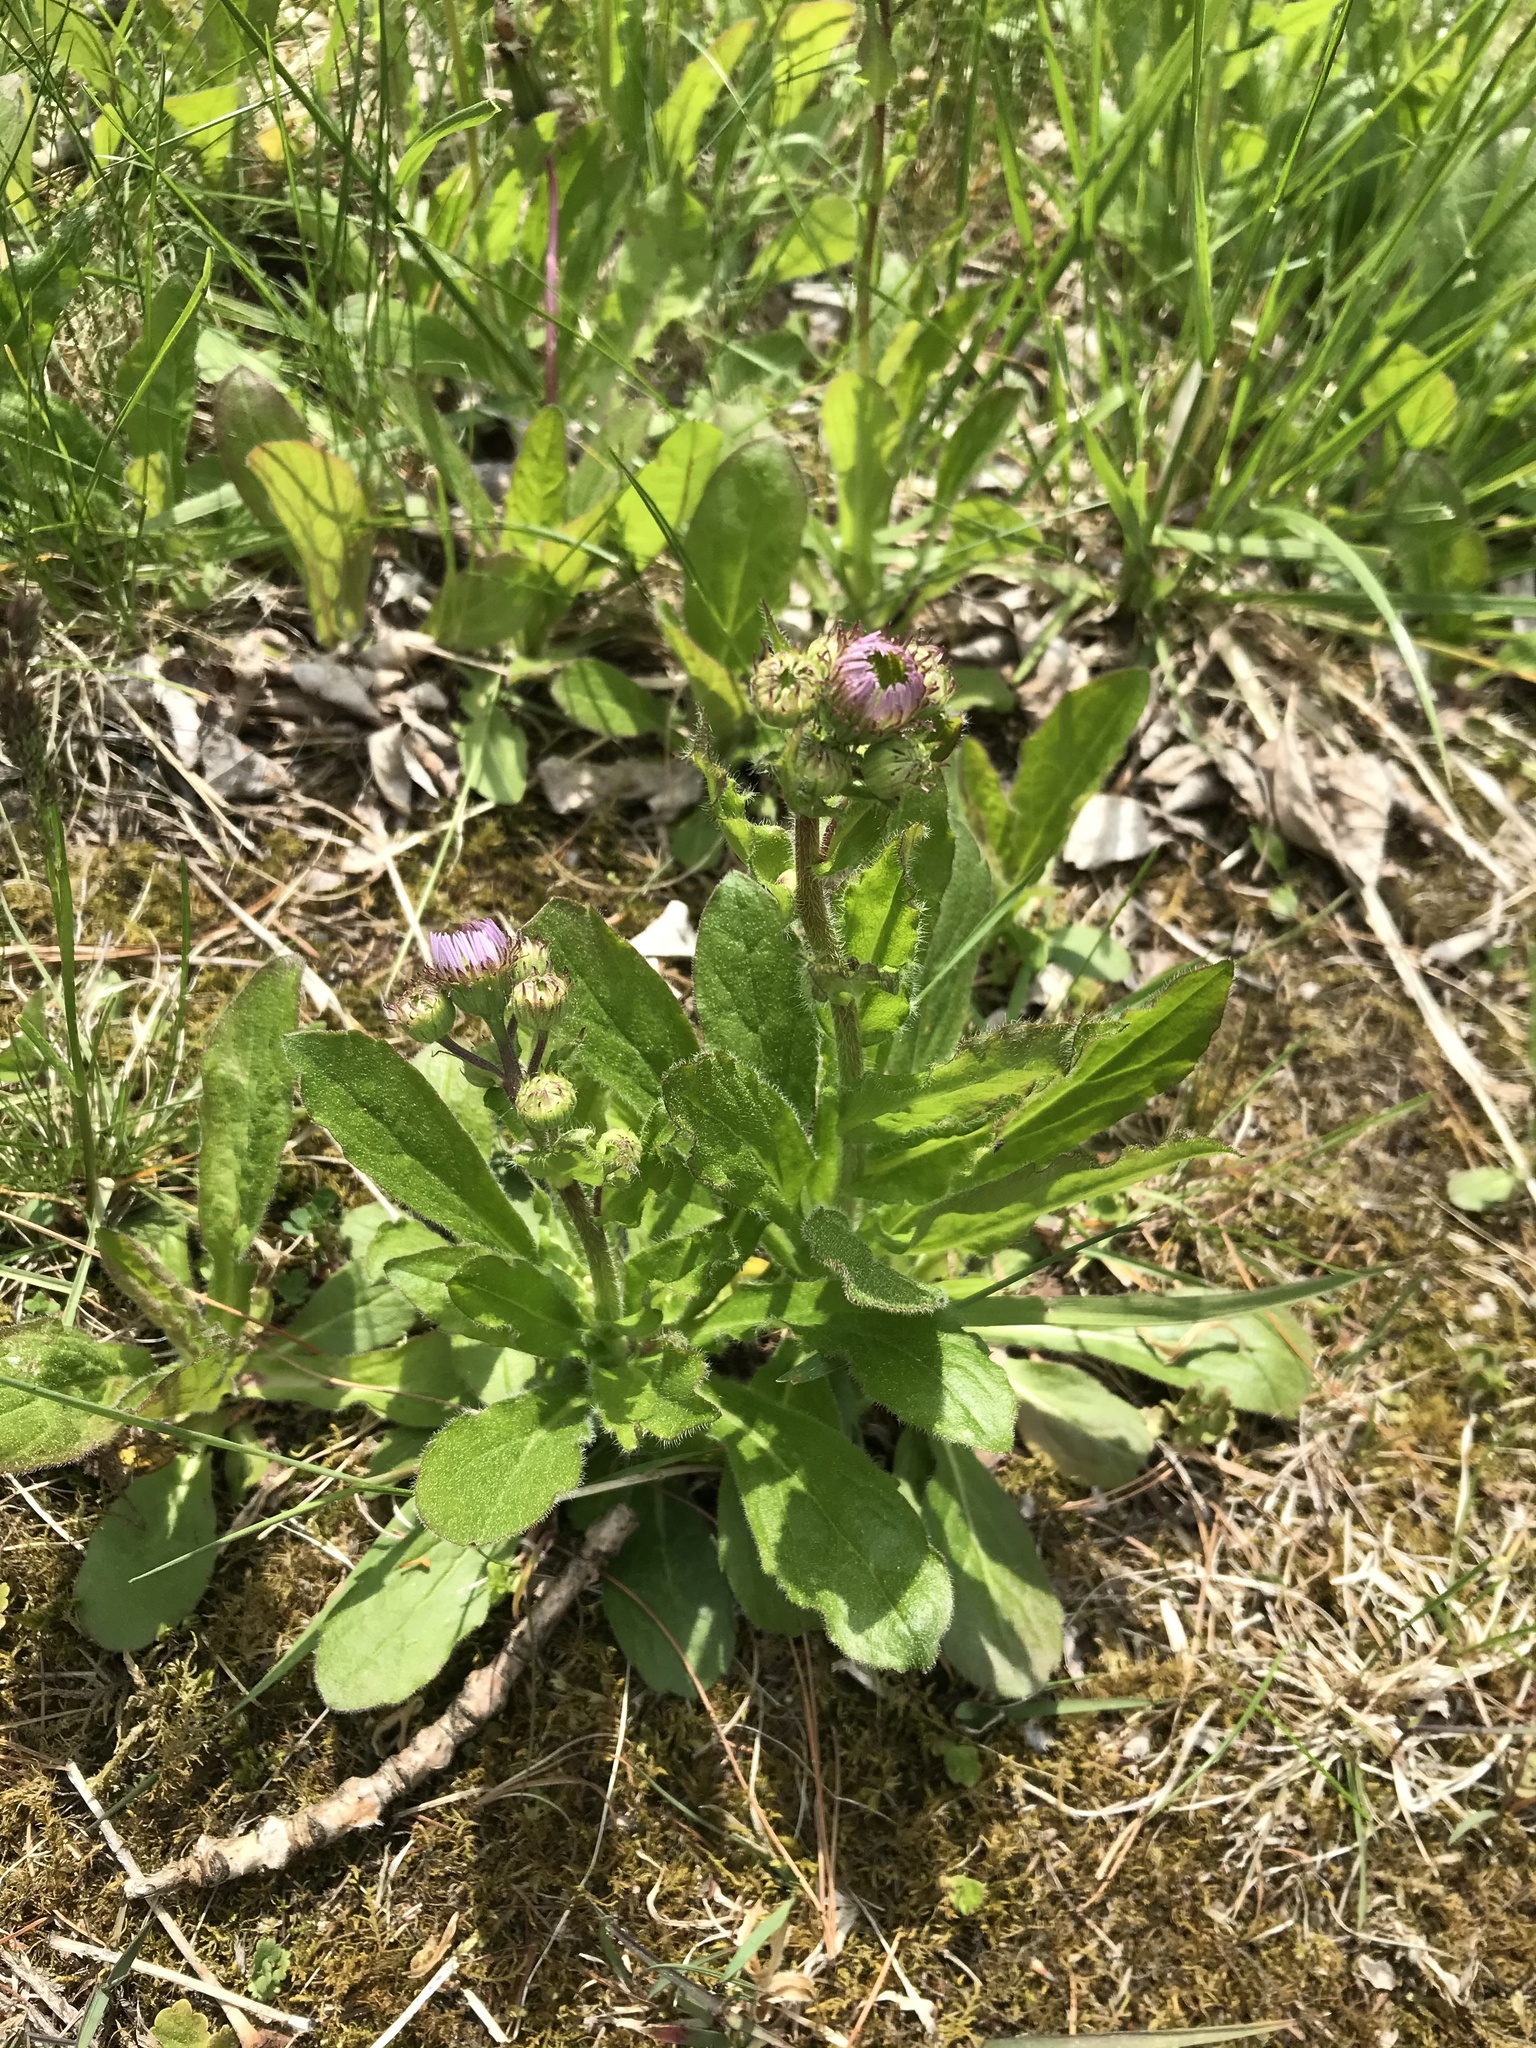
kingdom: Plantae
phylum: Tracheophyta
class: Magnoliopsida
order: Asterales
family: Asteraceae
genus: Erigeron
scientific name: Erigeron pulchellus
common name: Hairy fleabane
